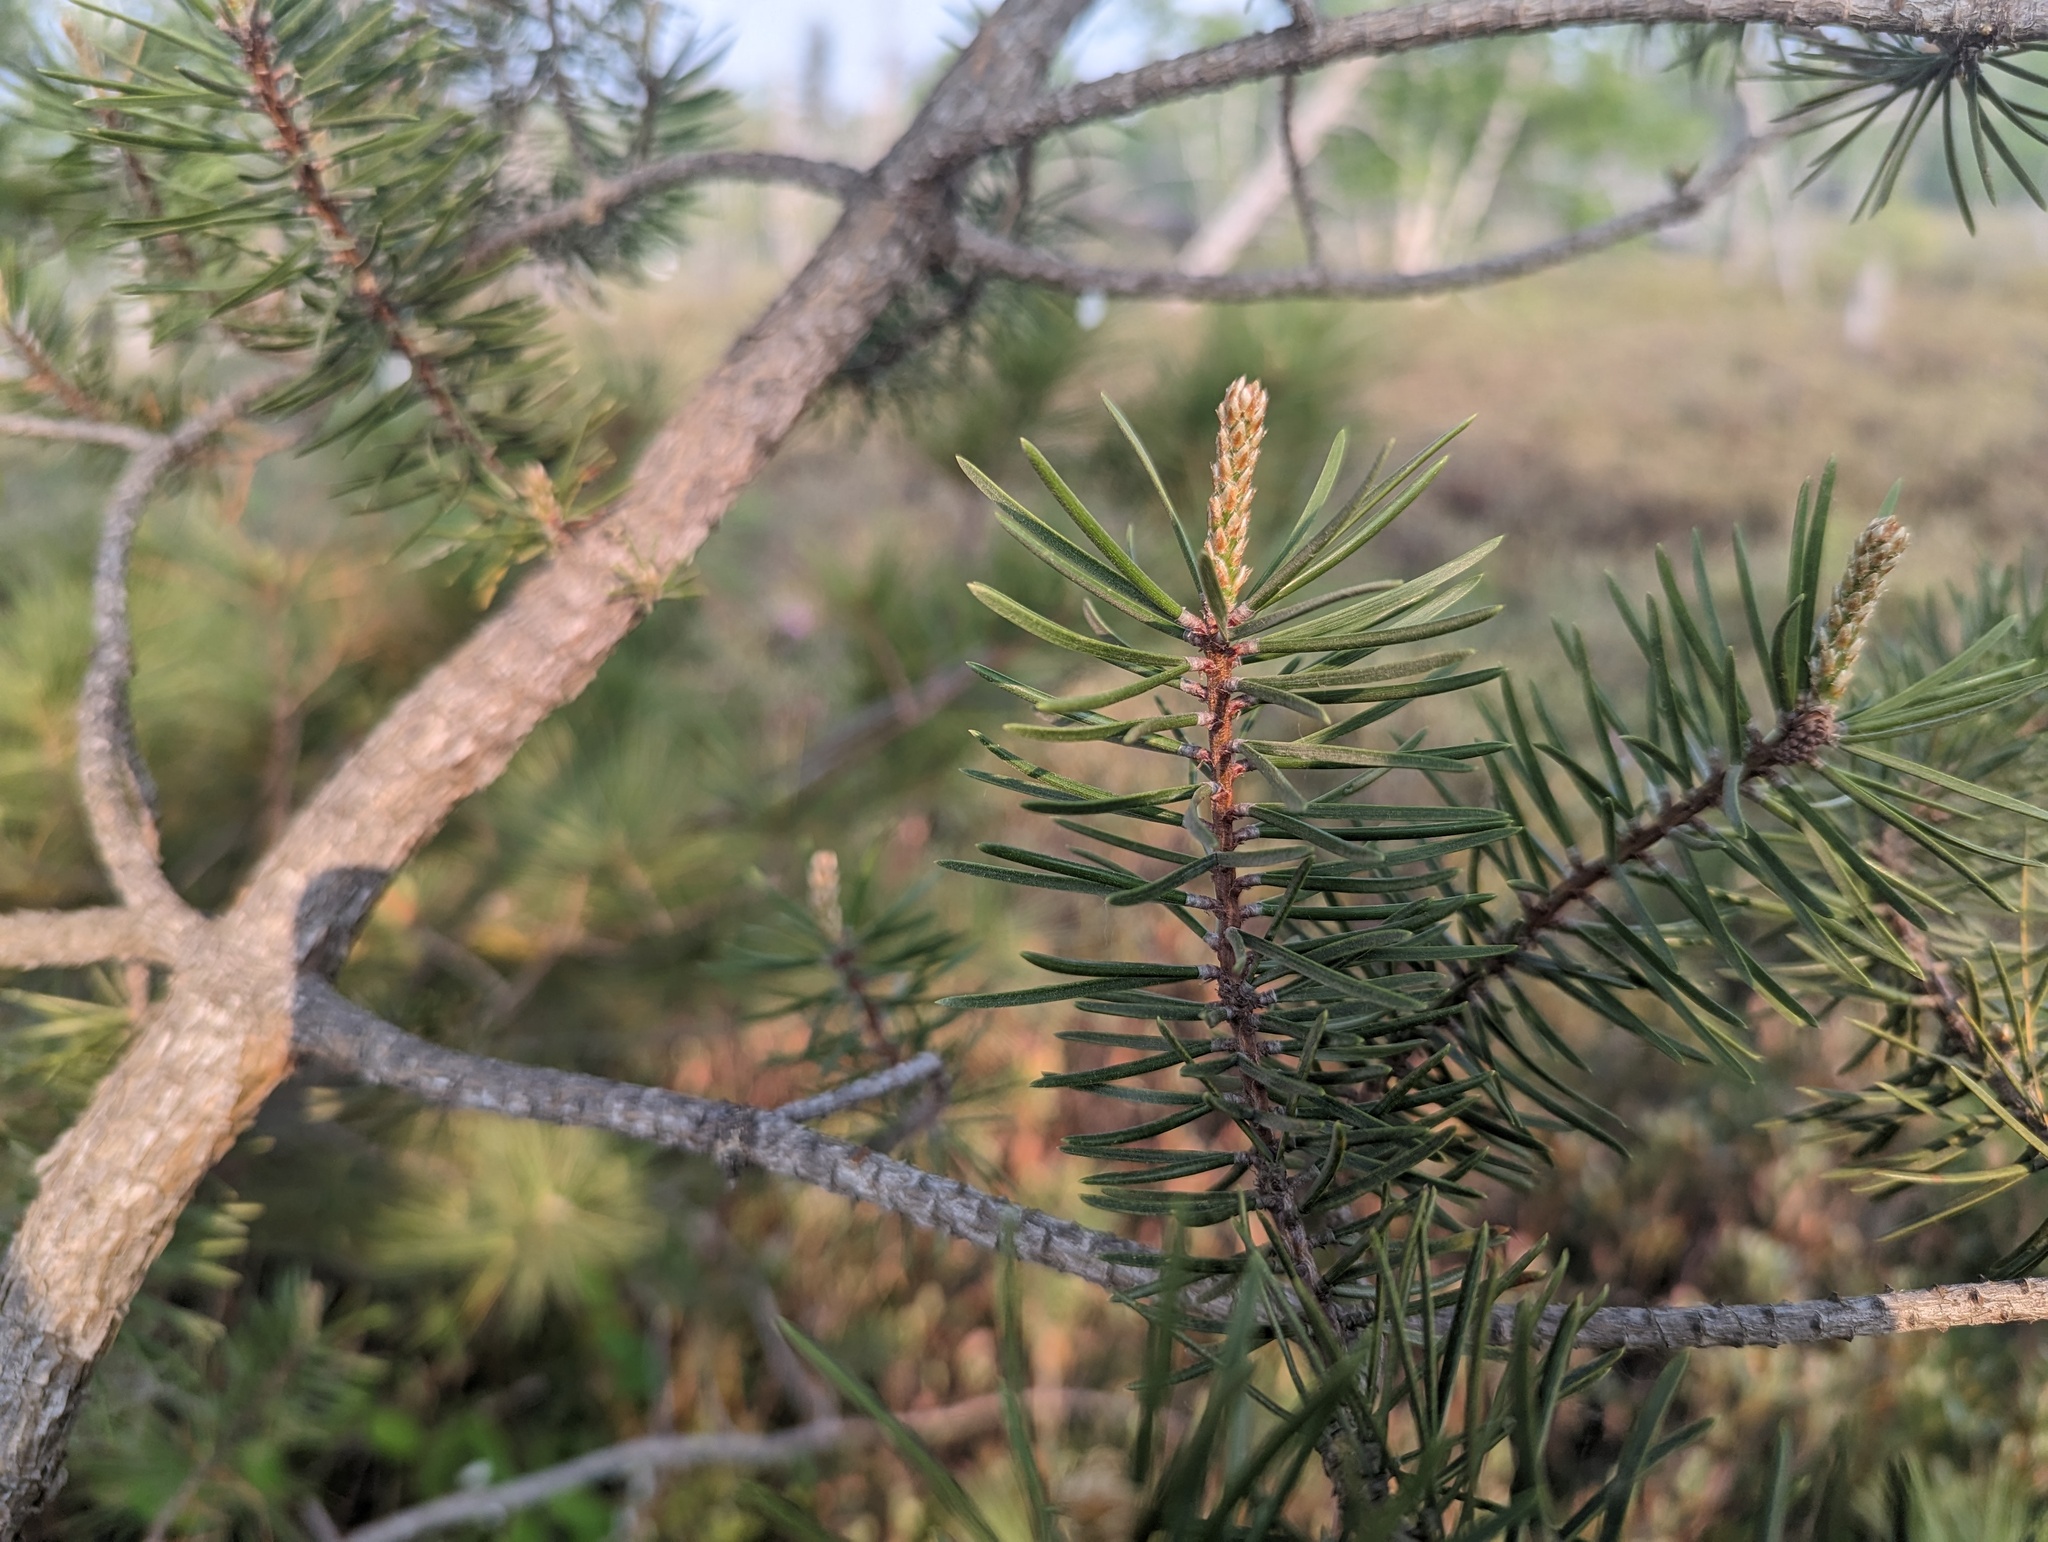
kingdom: Plantae
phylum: Tracheophyta
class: Pinopsida
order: Pinales
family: Pinaceae
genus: Pinus
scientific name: Pinus banksiana
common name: Jack pine
